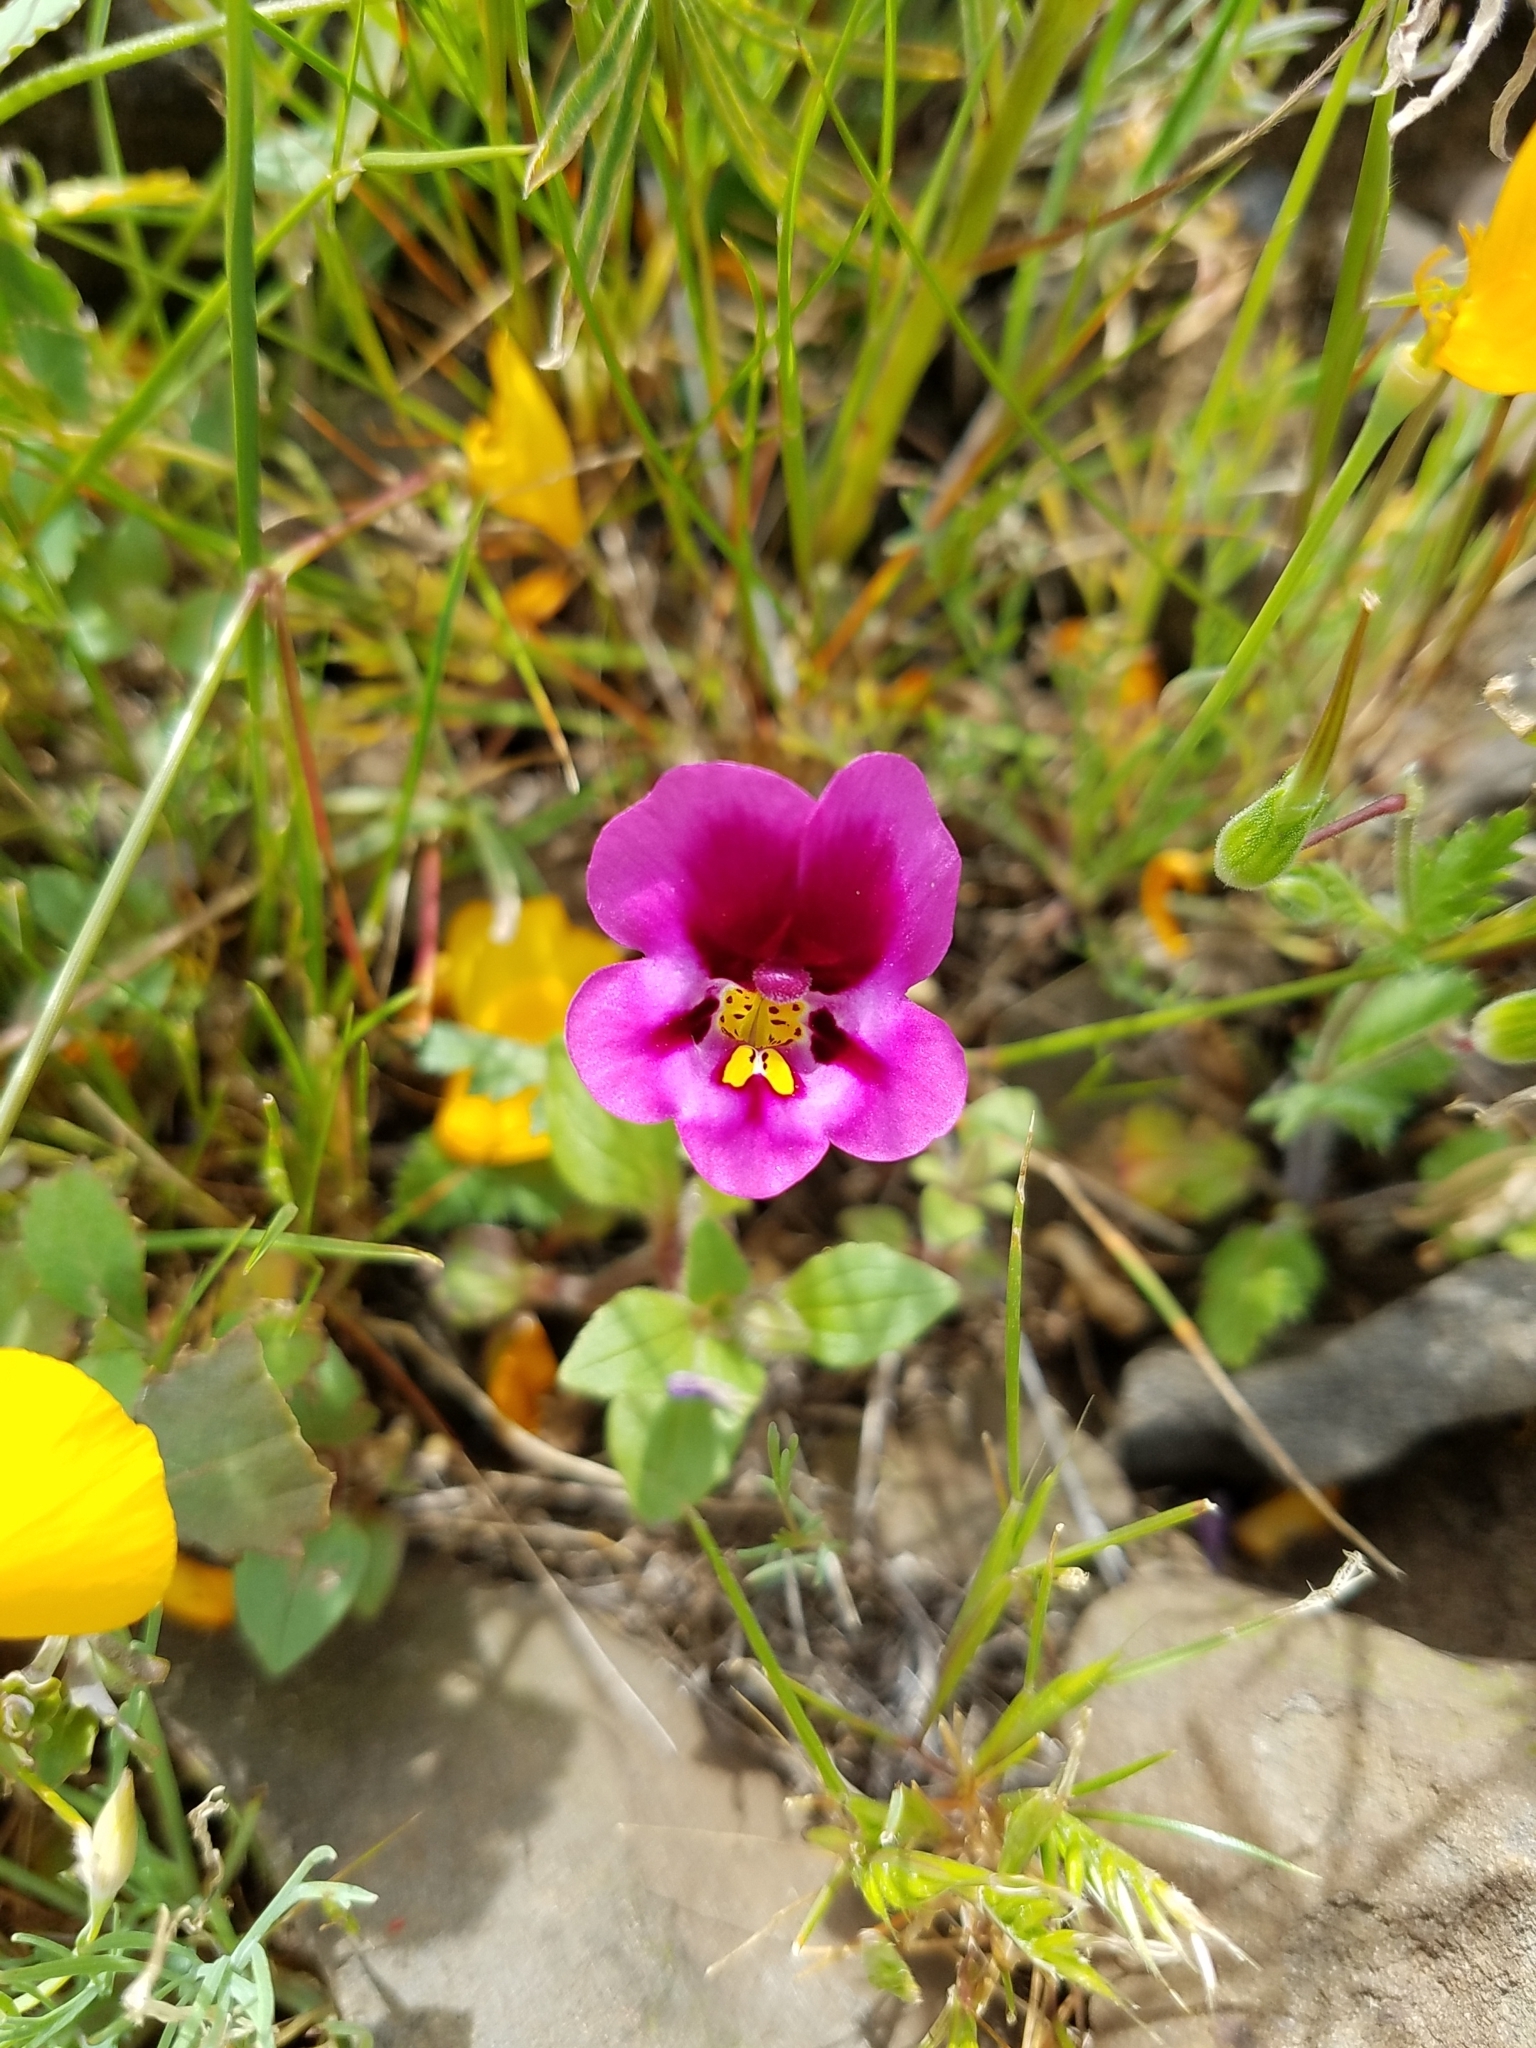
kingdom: Plantae
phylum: Tracheophyta
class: Magnoliopsida
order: Lamiales
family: Phrymaceae
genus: Diplacus
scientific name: Diplacus kelloggii
